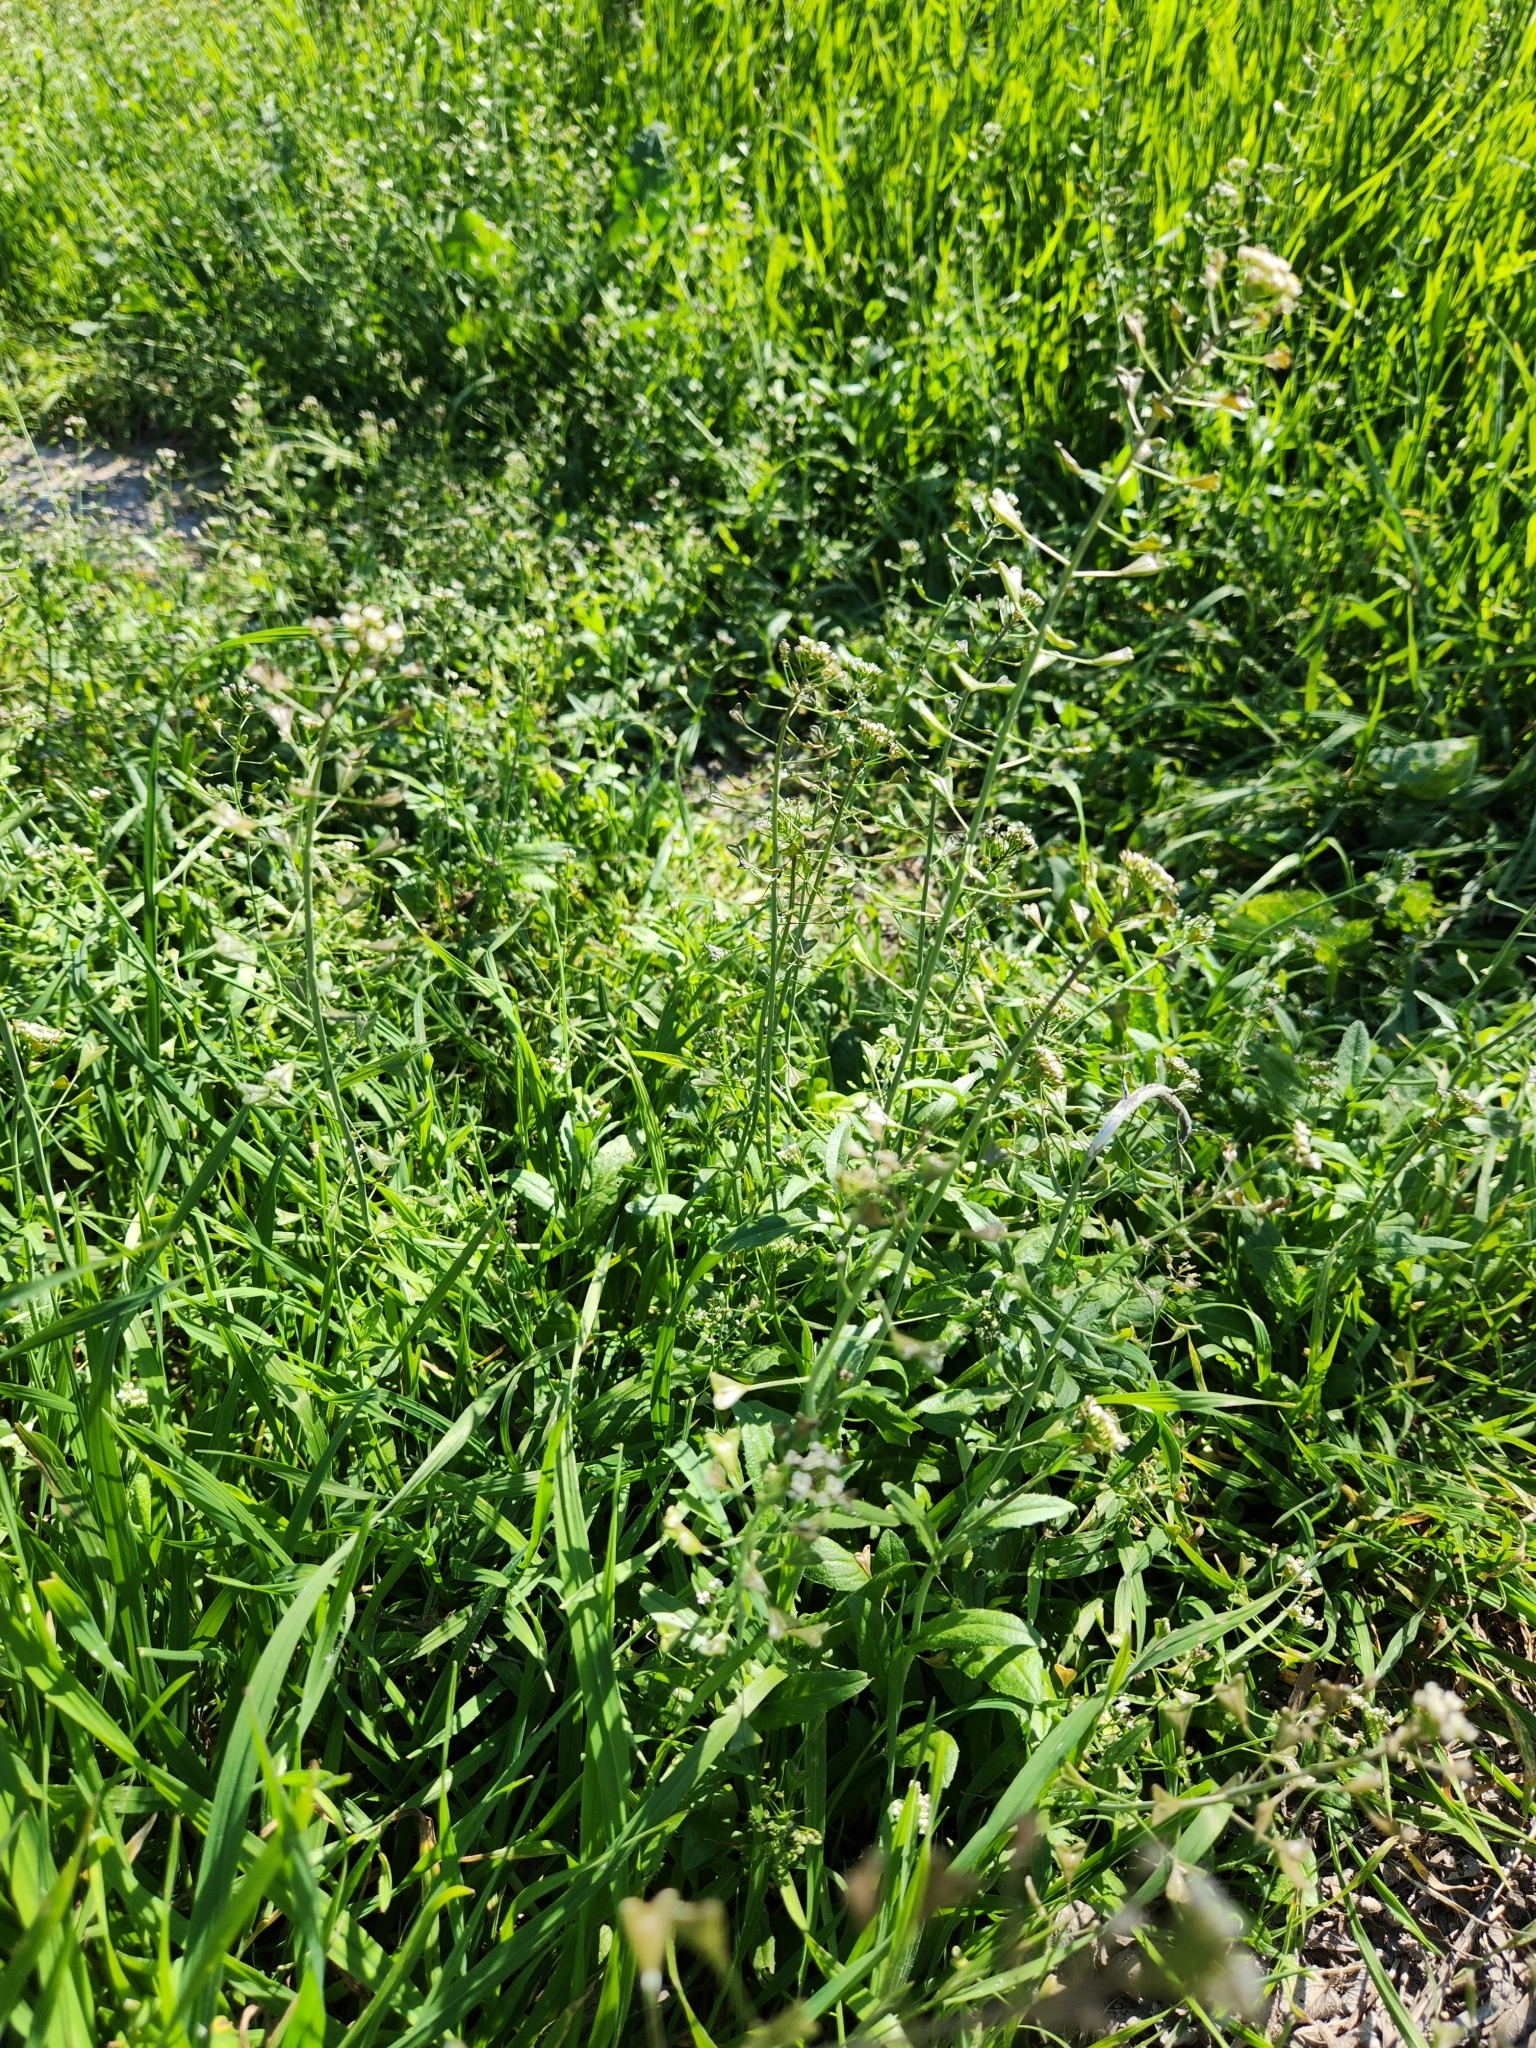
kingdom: Plantae
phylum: Tracheophyta
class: Magnoliopsida
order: Brassicales
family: Brassicaceae
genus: Capsella
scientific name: Capsella bursa-pastoris
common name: Shepherd's purse
